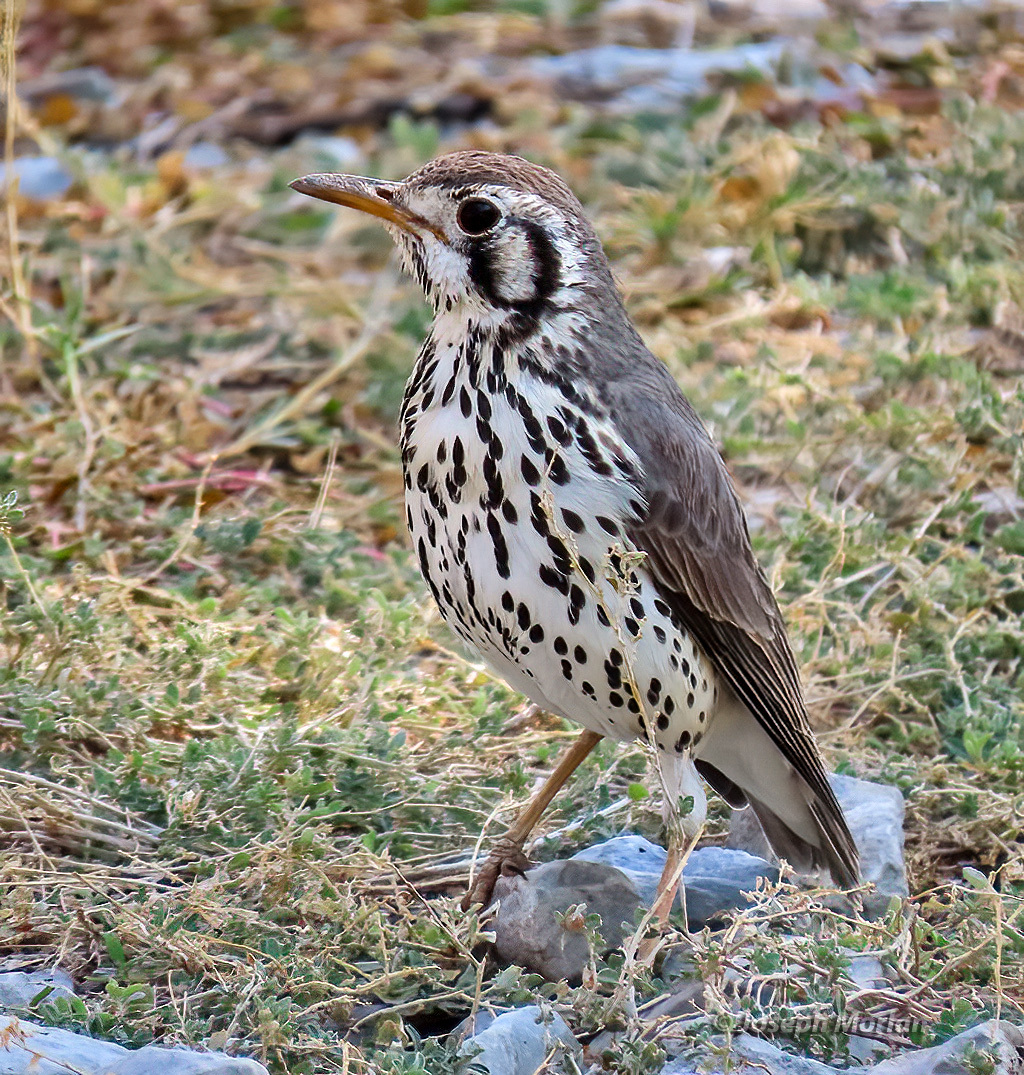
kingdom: Animalia
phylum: Chordata
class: Aves
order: Passeriformes
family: Turdidae
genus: Psophocichla
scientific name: Psophocichla litsitsirupa
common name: Groundscraper thrush
